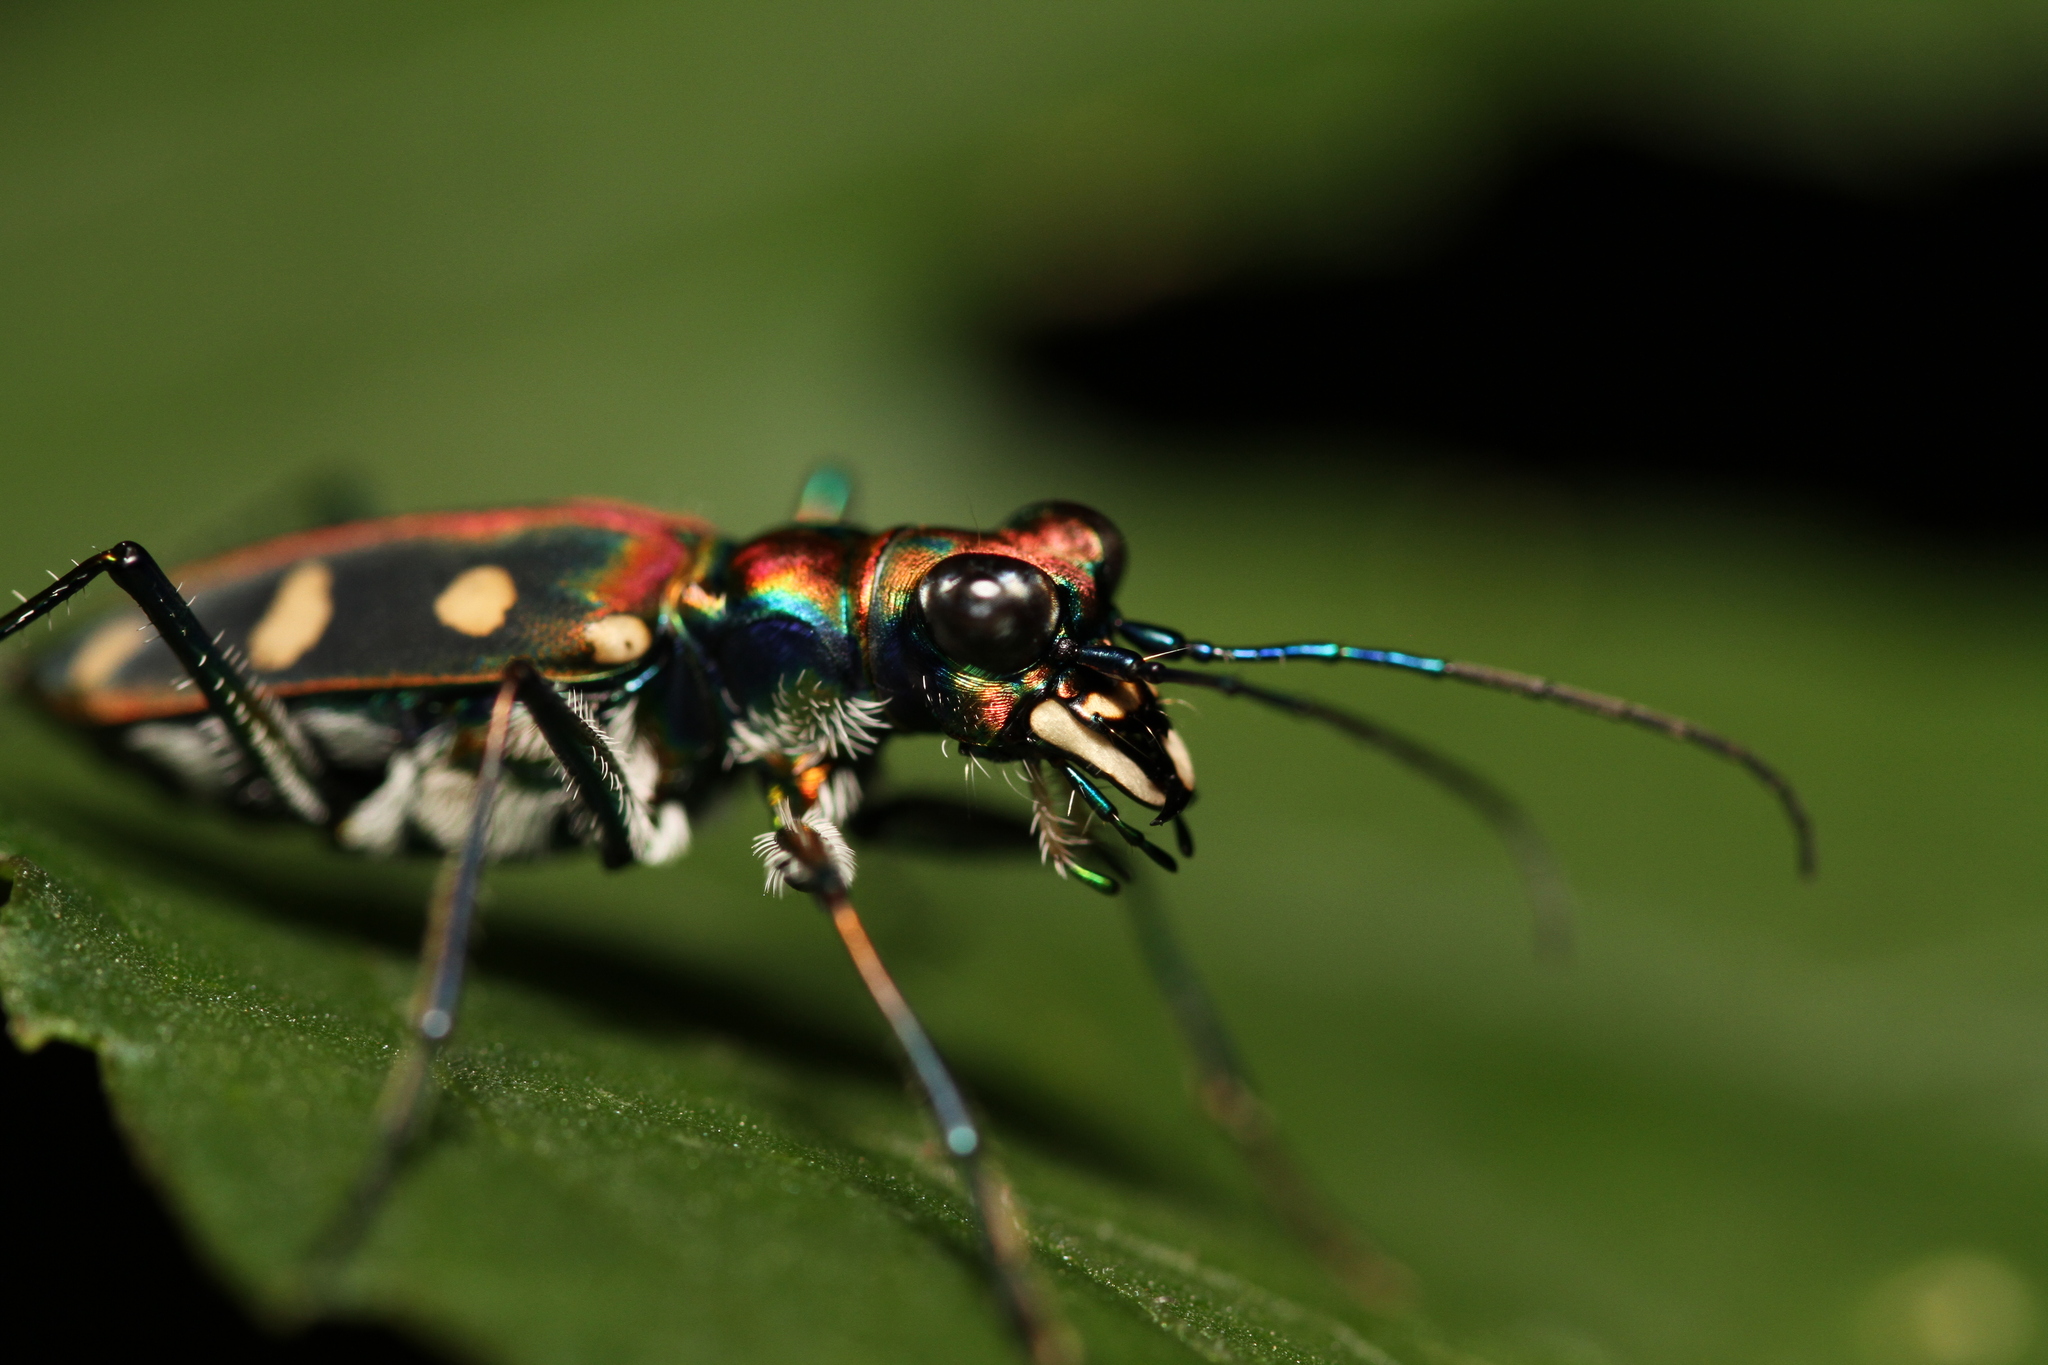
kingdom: Animalia
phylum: Arthropoda
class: Insecta
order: Coleoptera
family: Carabidae
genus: Cicindela
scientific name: Cicindela aurulenta
